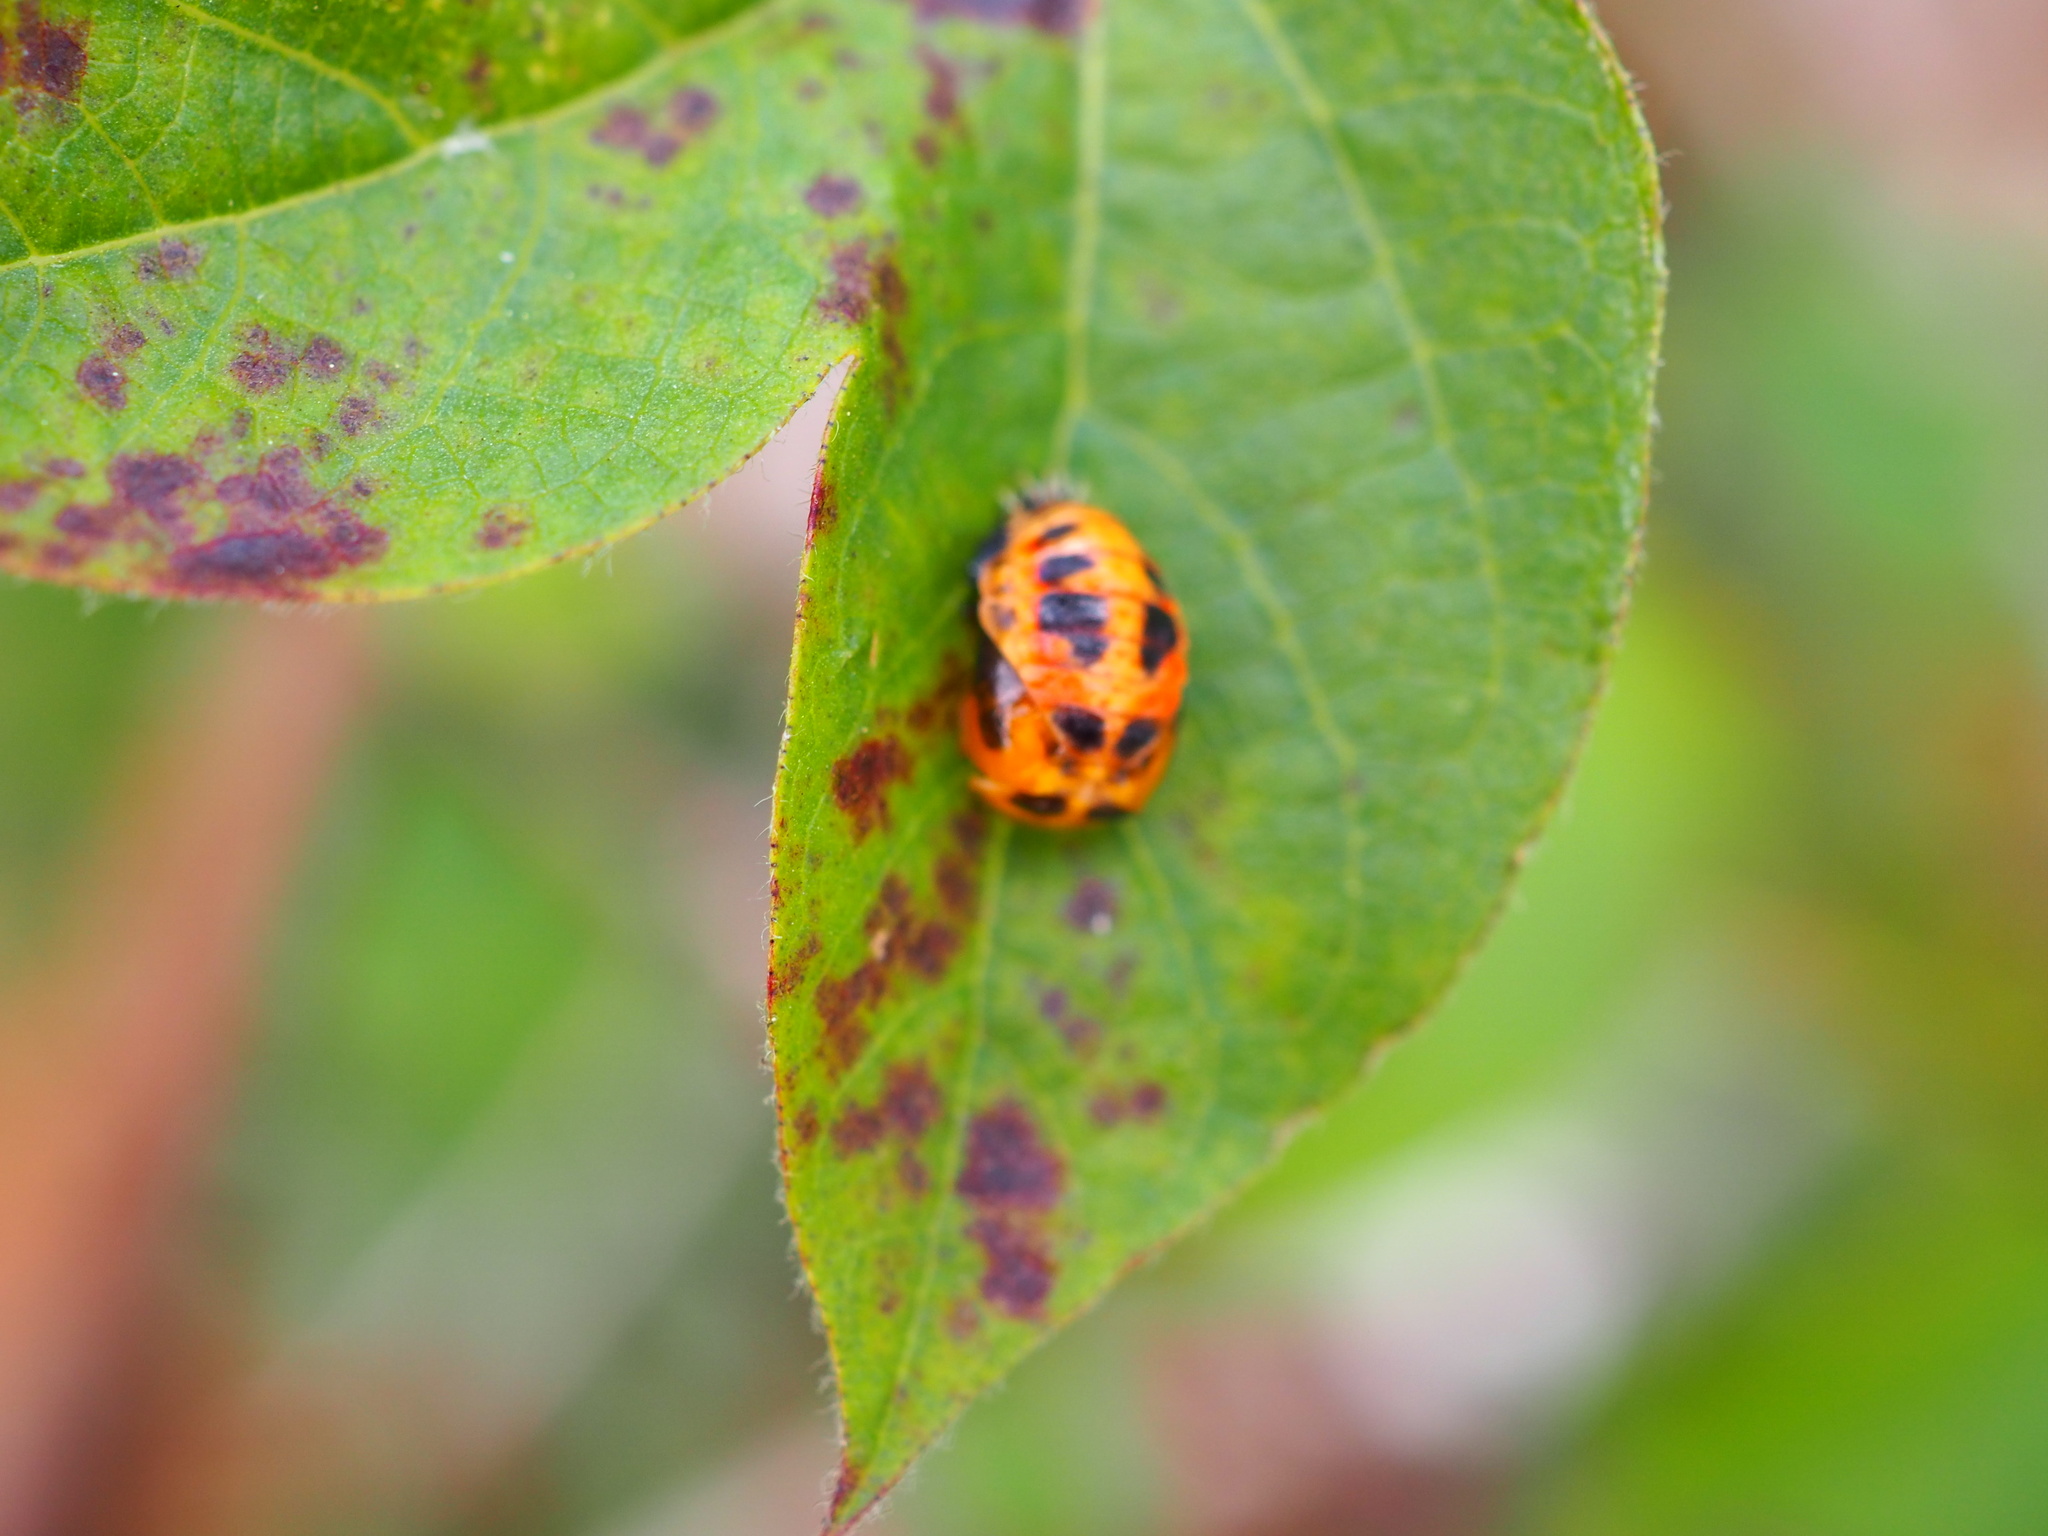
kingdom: Animalia
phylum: Arthropoda
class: Insecta
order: Coleoptera
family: Coccinellidae
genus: Harmonia
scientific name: Harmonia axyridis
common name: Harlequin ladybird
